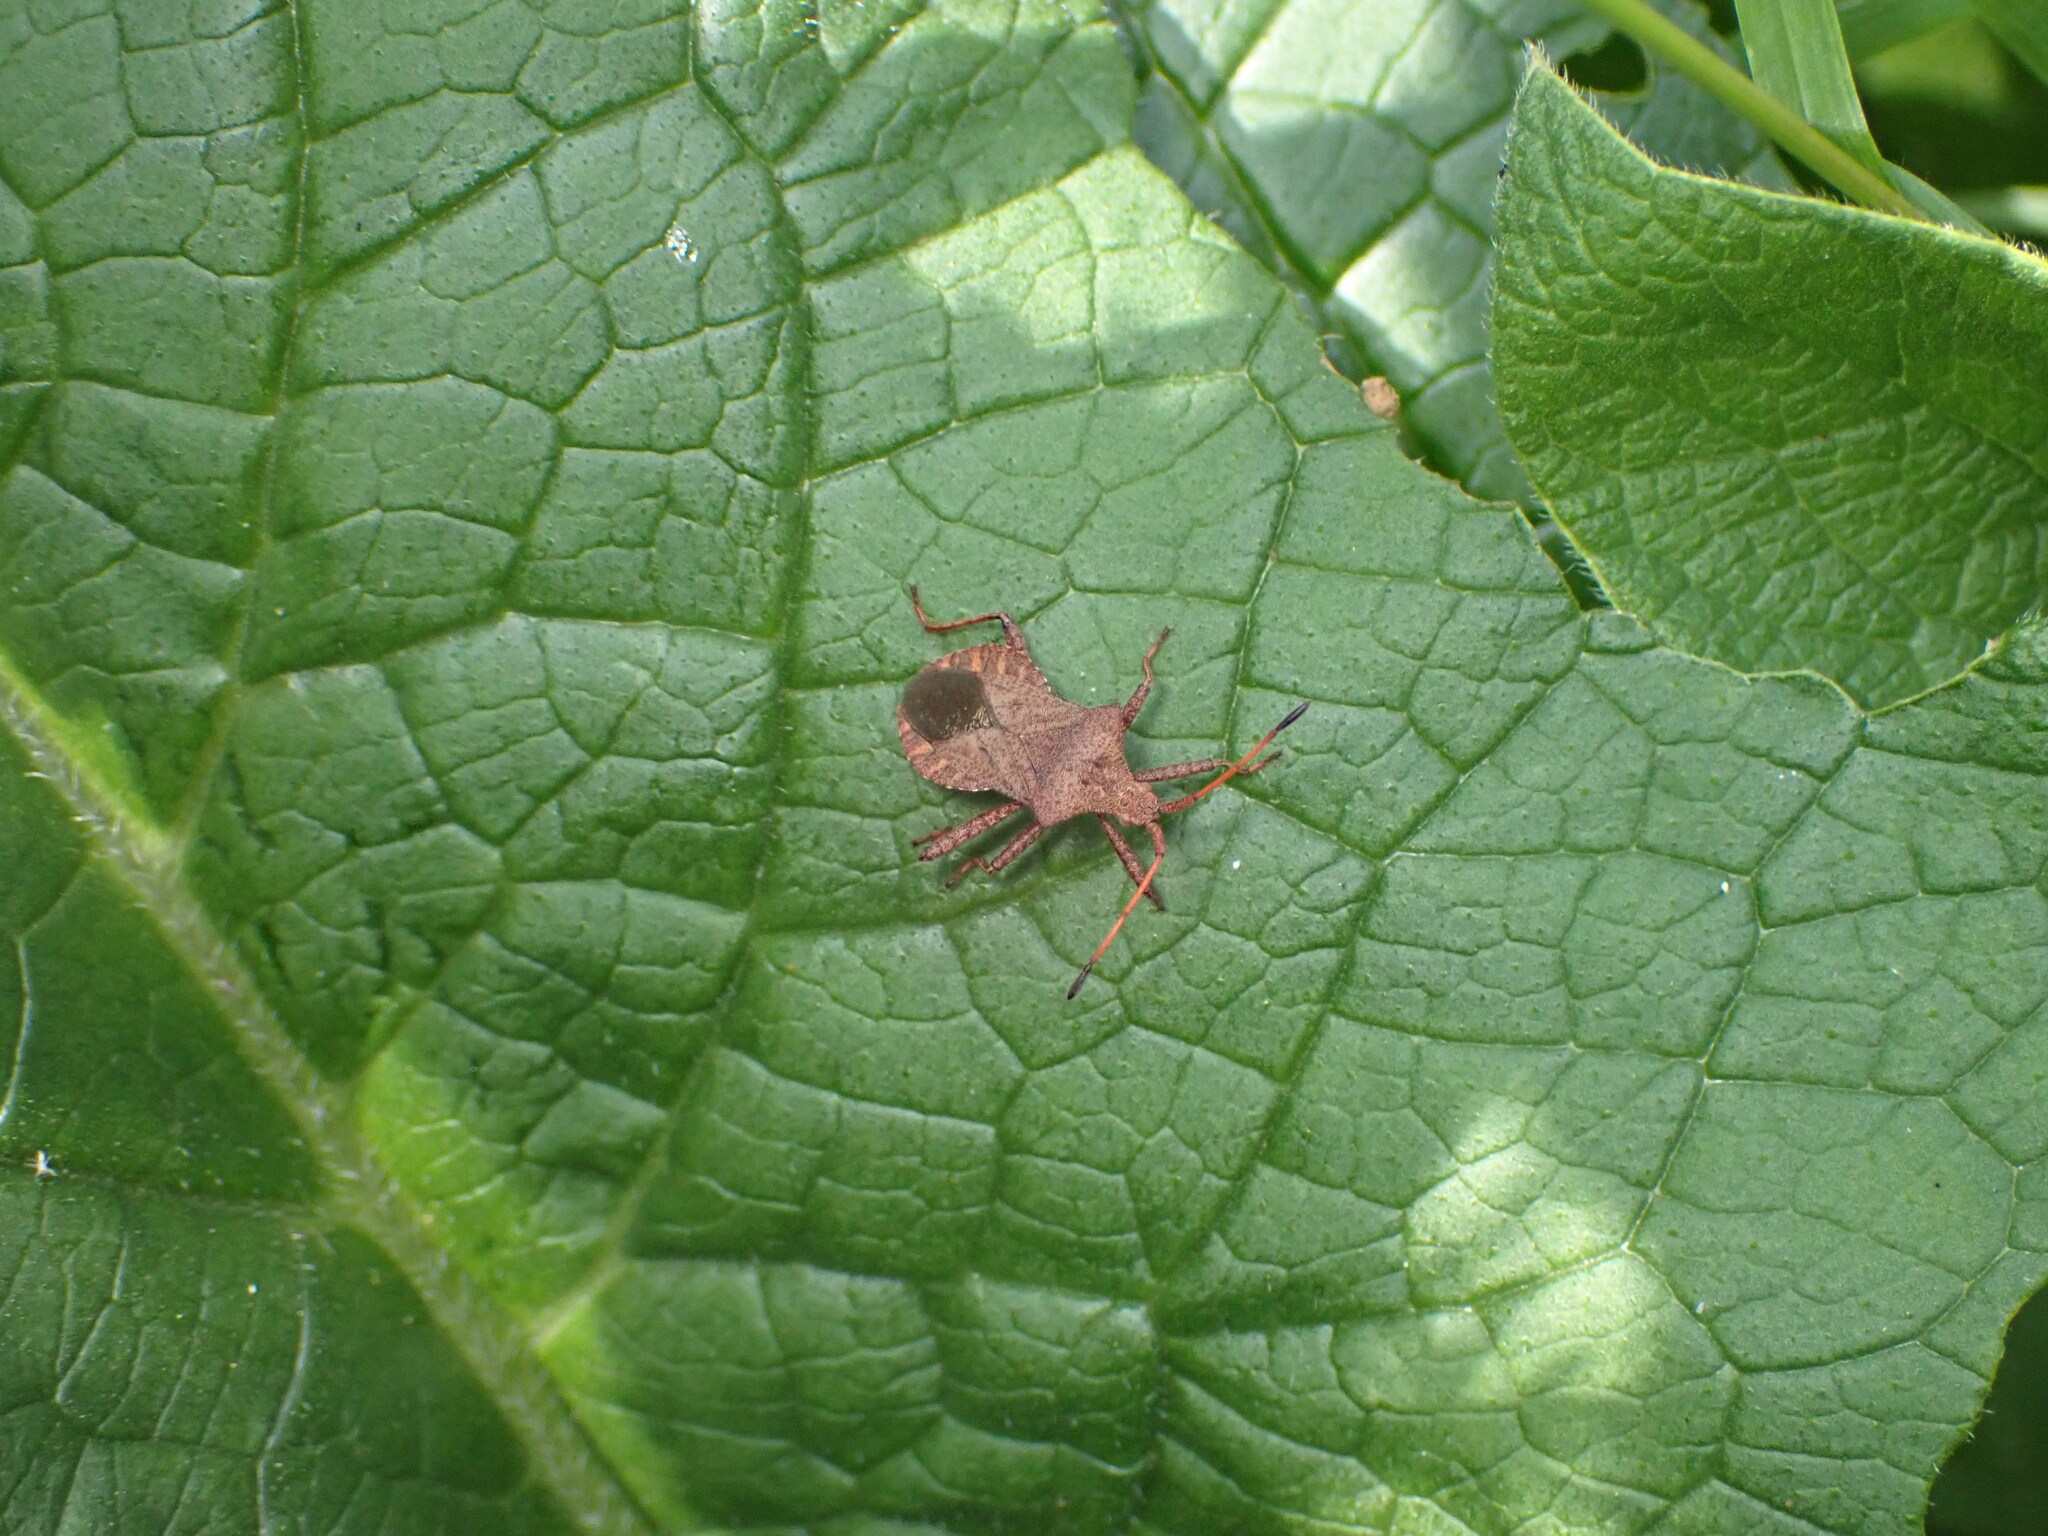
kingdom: Animalia
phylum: Arthropoda
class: Insecta
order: Hemiptera
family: Coreidae
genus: Coreus
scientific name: Coreus marginatus
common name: Dock bug
